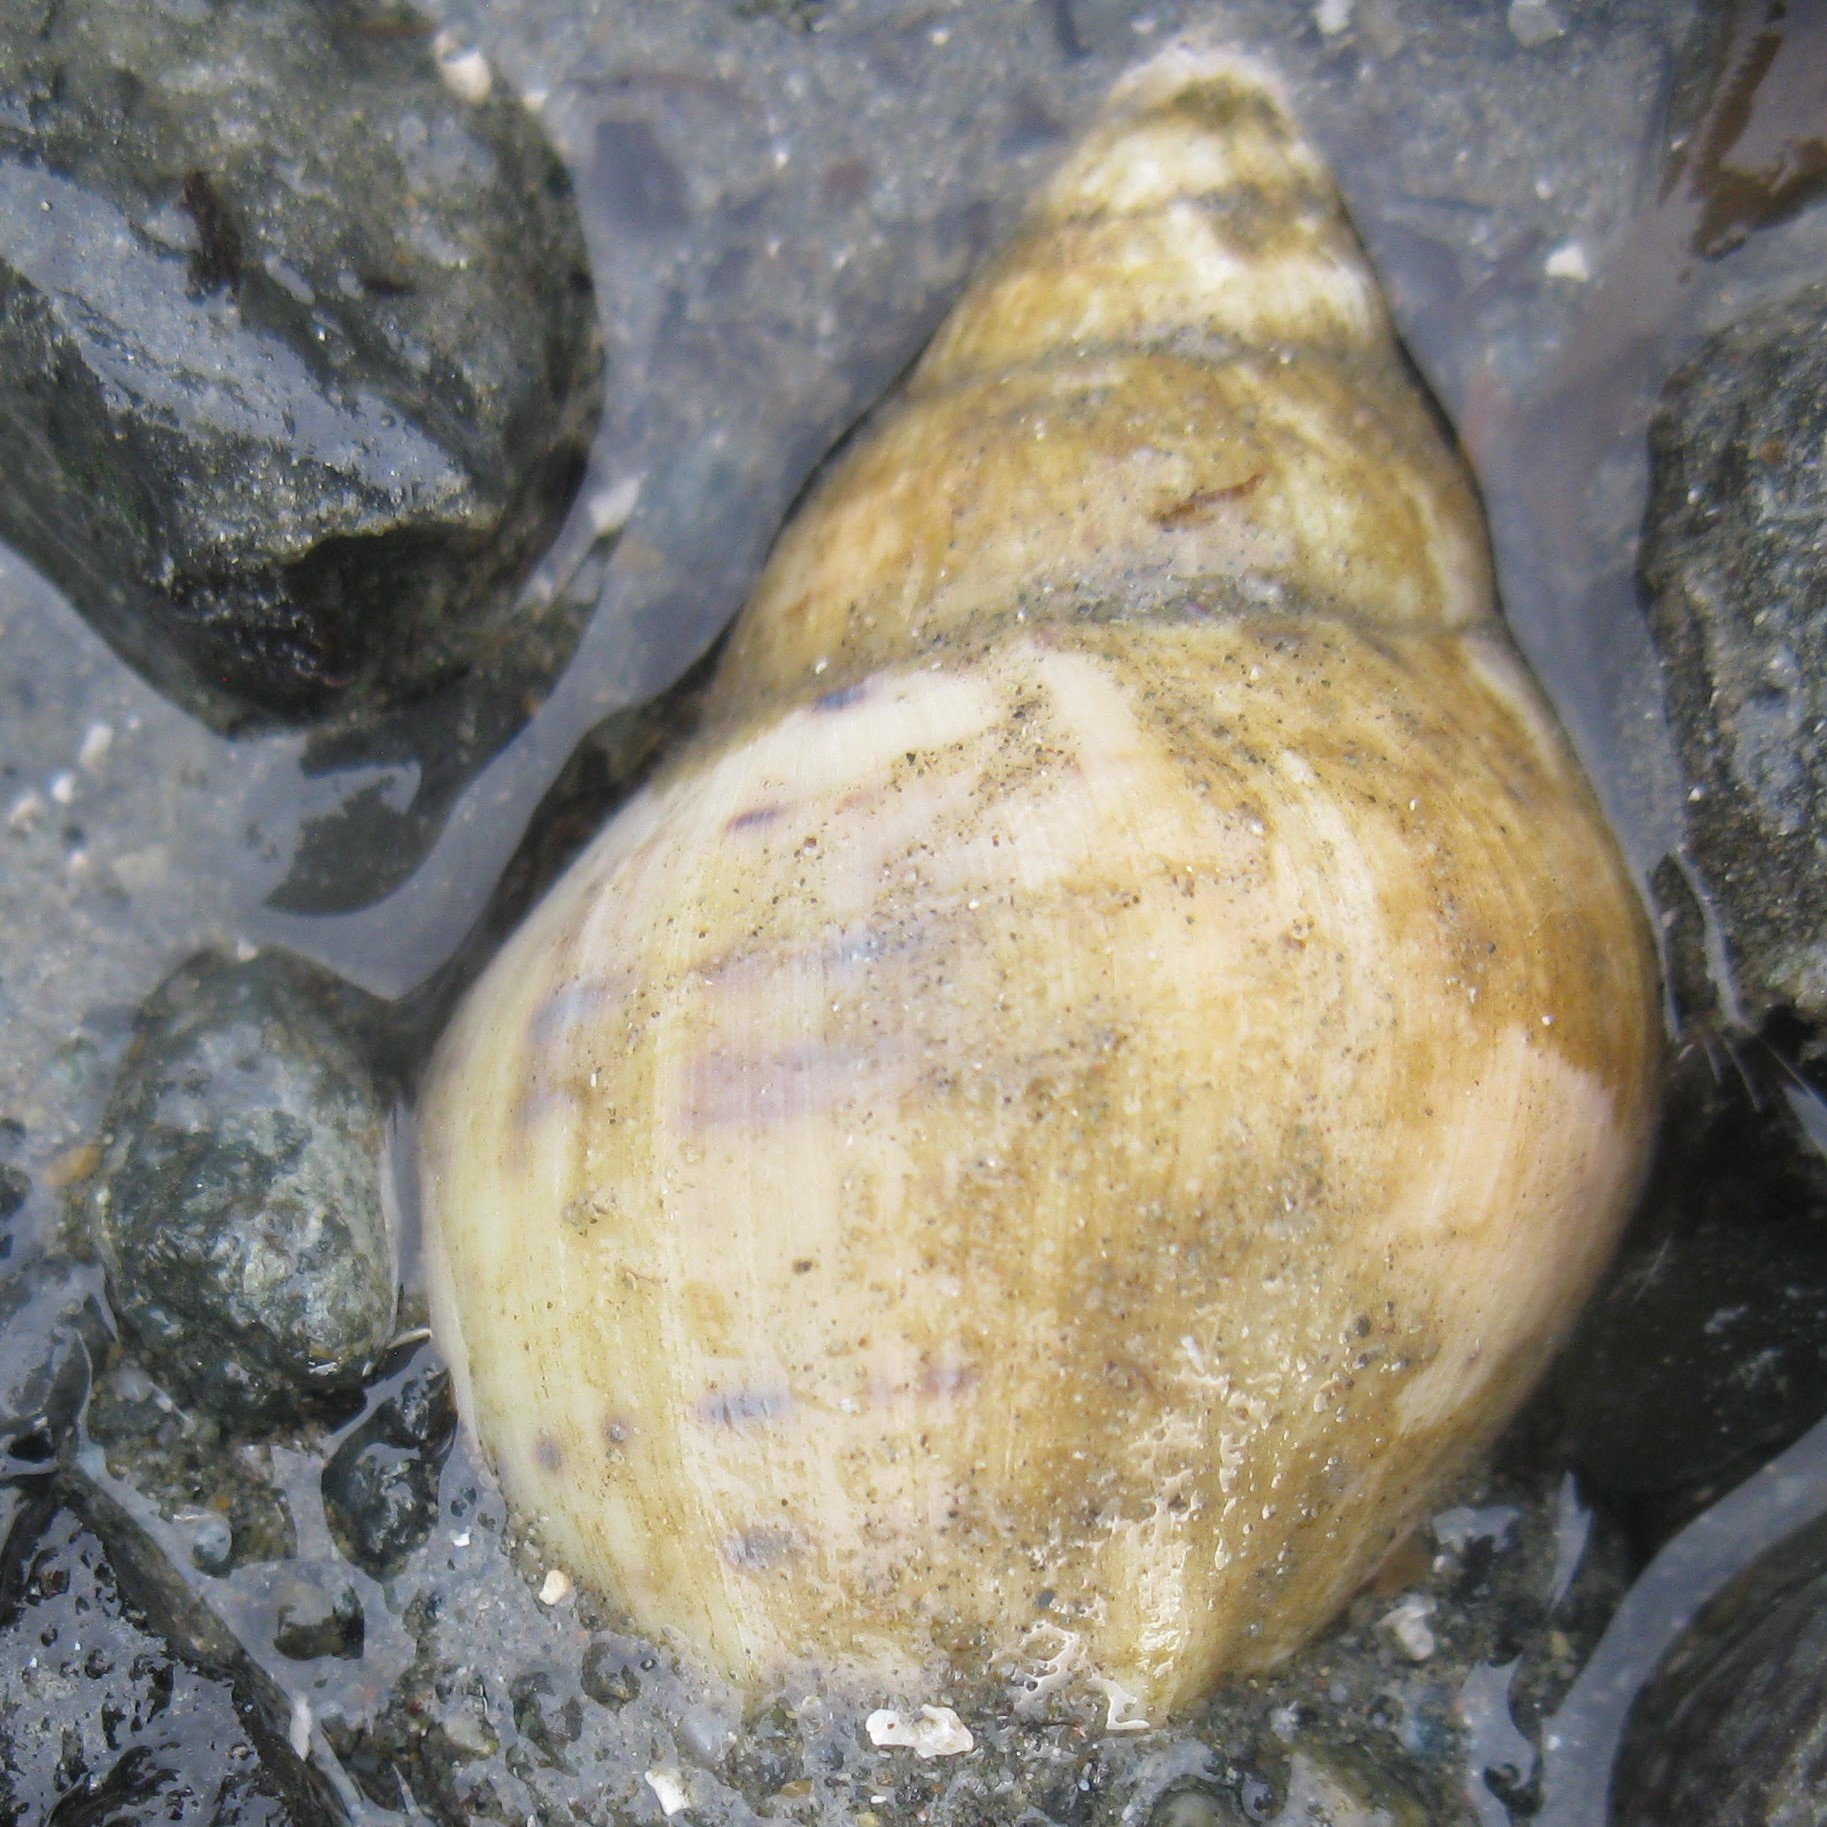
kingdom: Animalia
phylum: Mollusca
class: Gastropoda
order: Neogastropoda
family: Cominellidae
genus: Cominella
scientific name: Cominella maculosa
